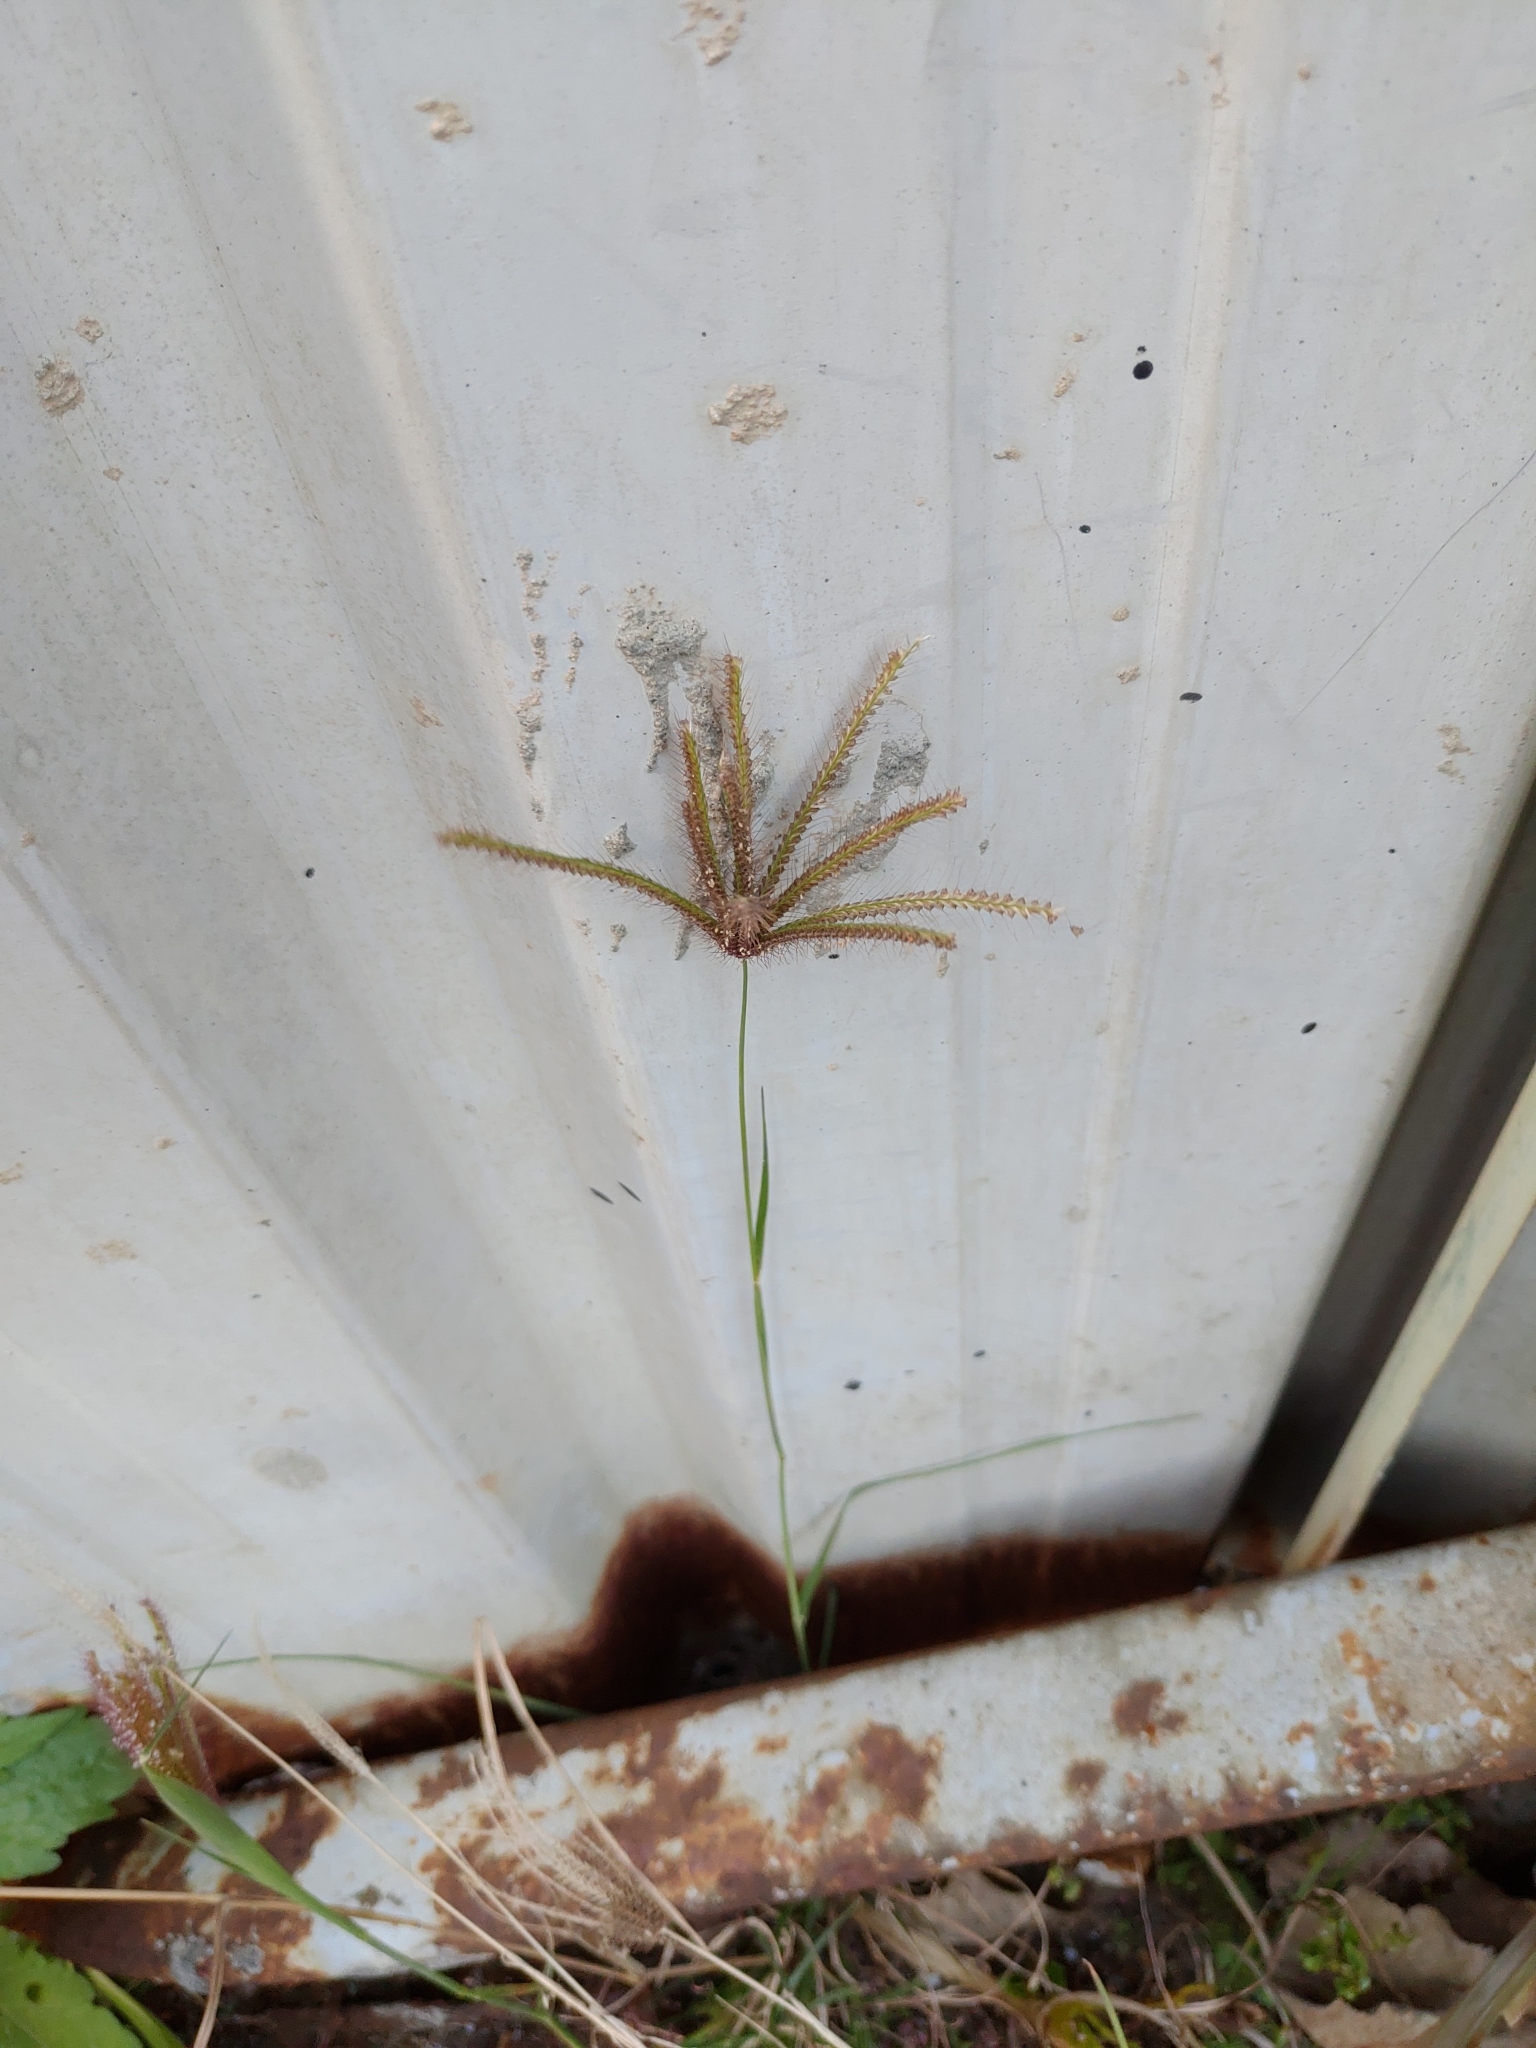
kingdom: Plantae
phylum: Tracheophyta
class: Liliopsida
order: Poales
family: Poaceae
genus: Chloris
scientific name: Chloris barbata
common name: Swollen fingergrass
